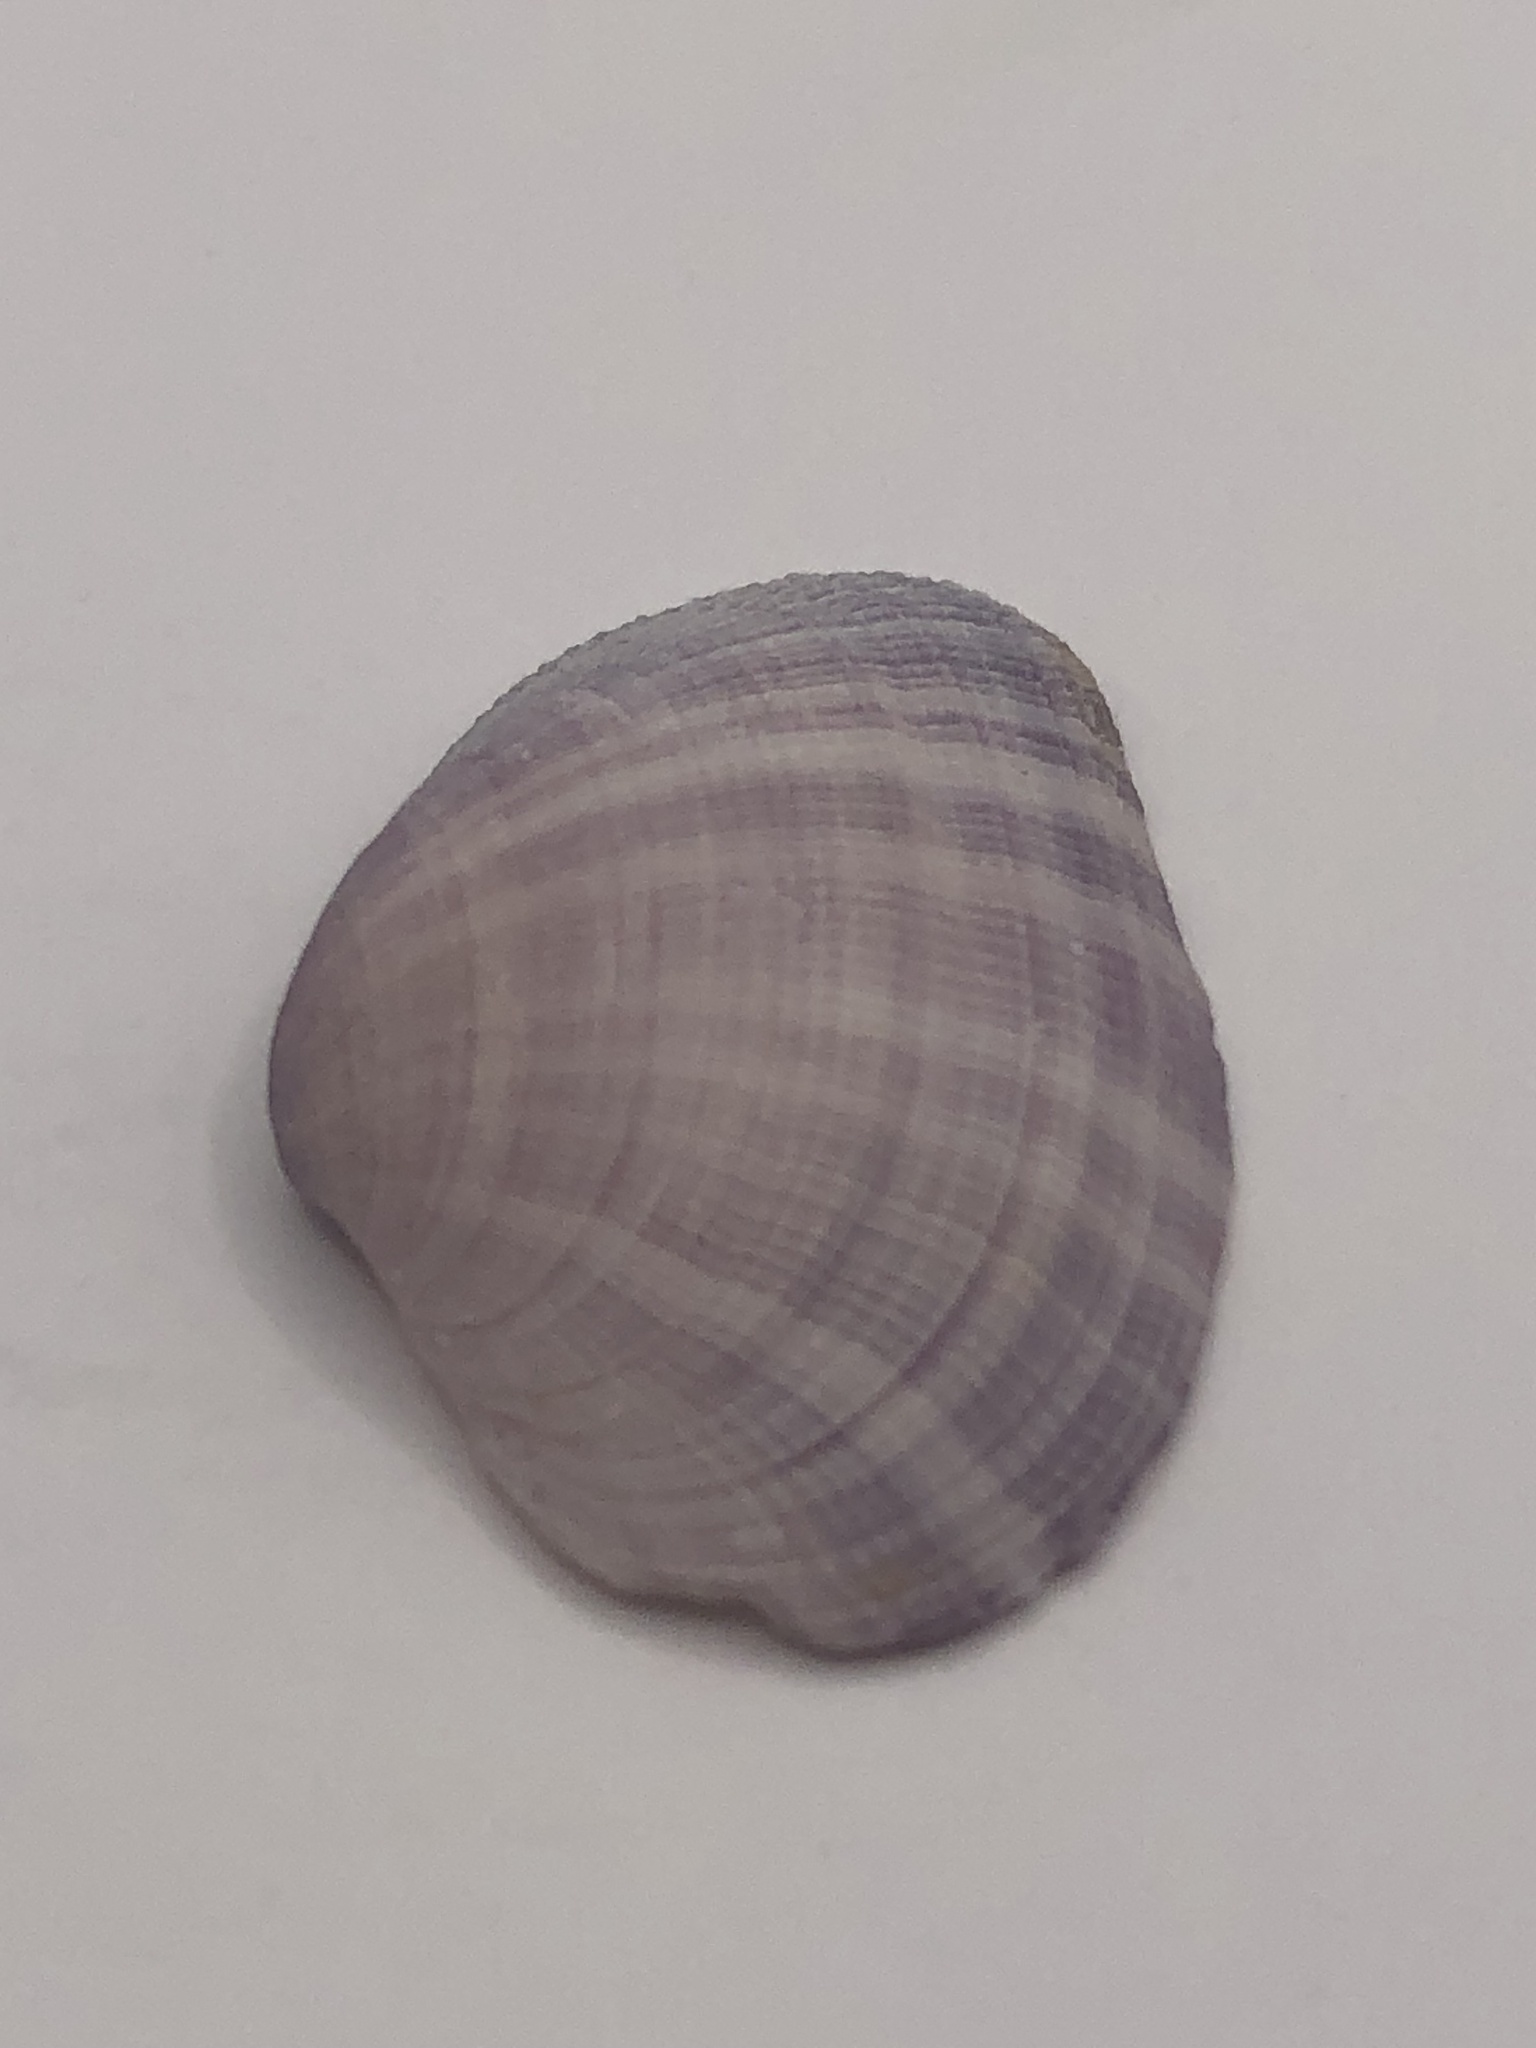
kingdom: Animalia
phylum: Mollusca
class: Bivalvia
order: Cardiida
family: Psammobiidae
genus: Asaphis
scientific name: Asaphis deflorata
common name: Gaudy asaphis
